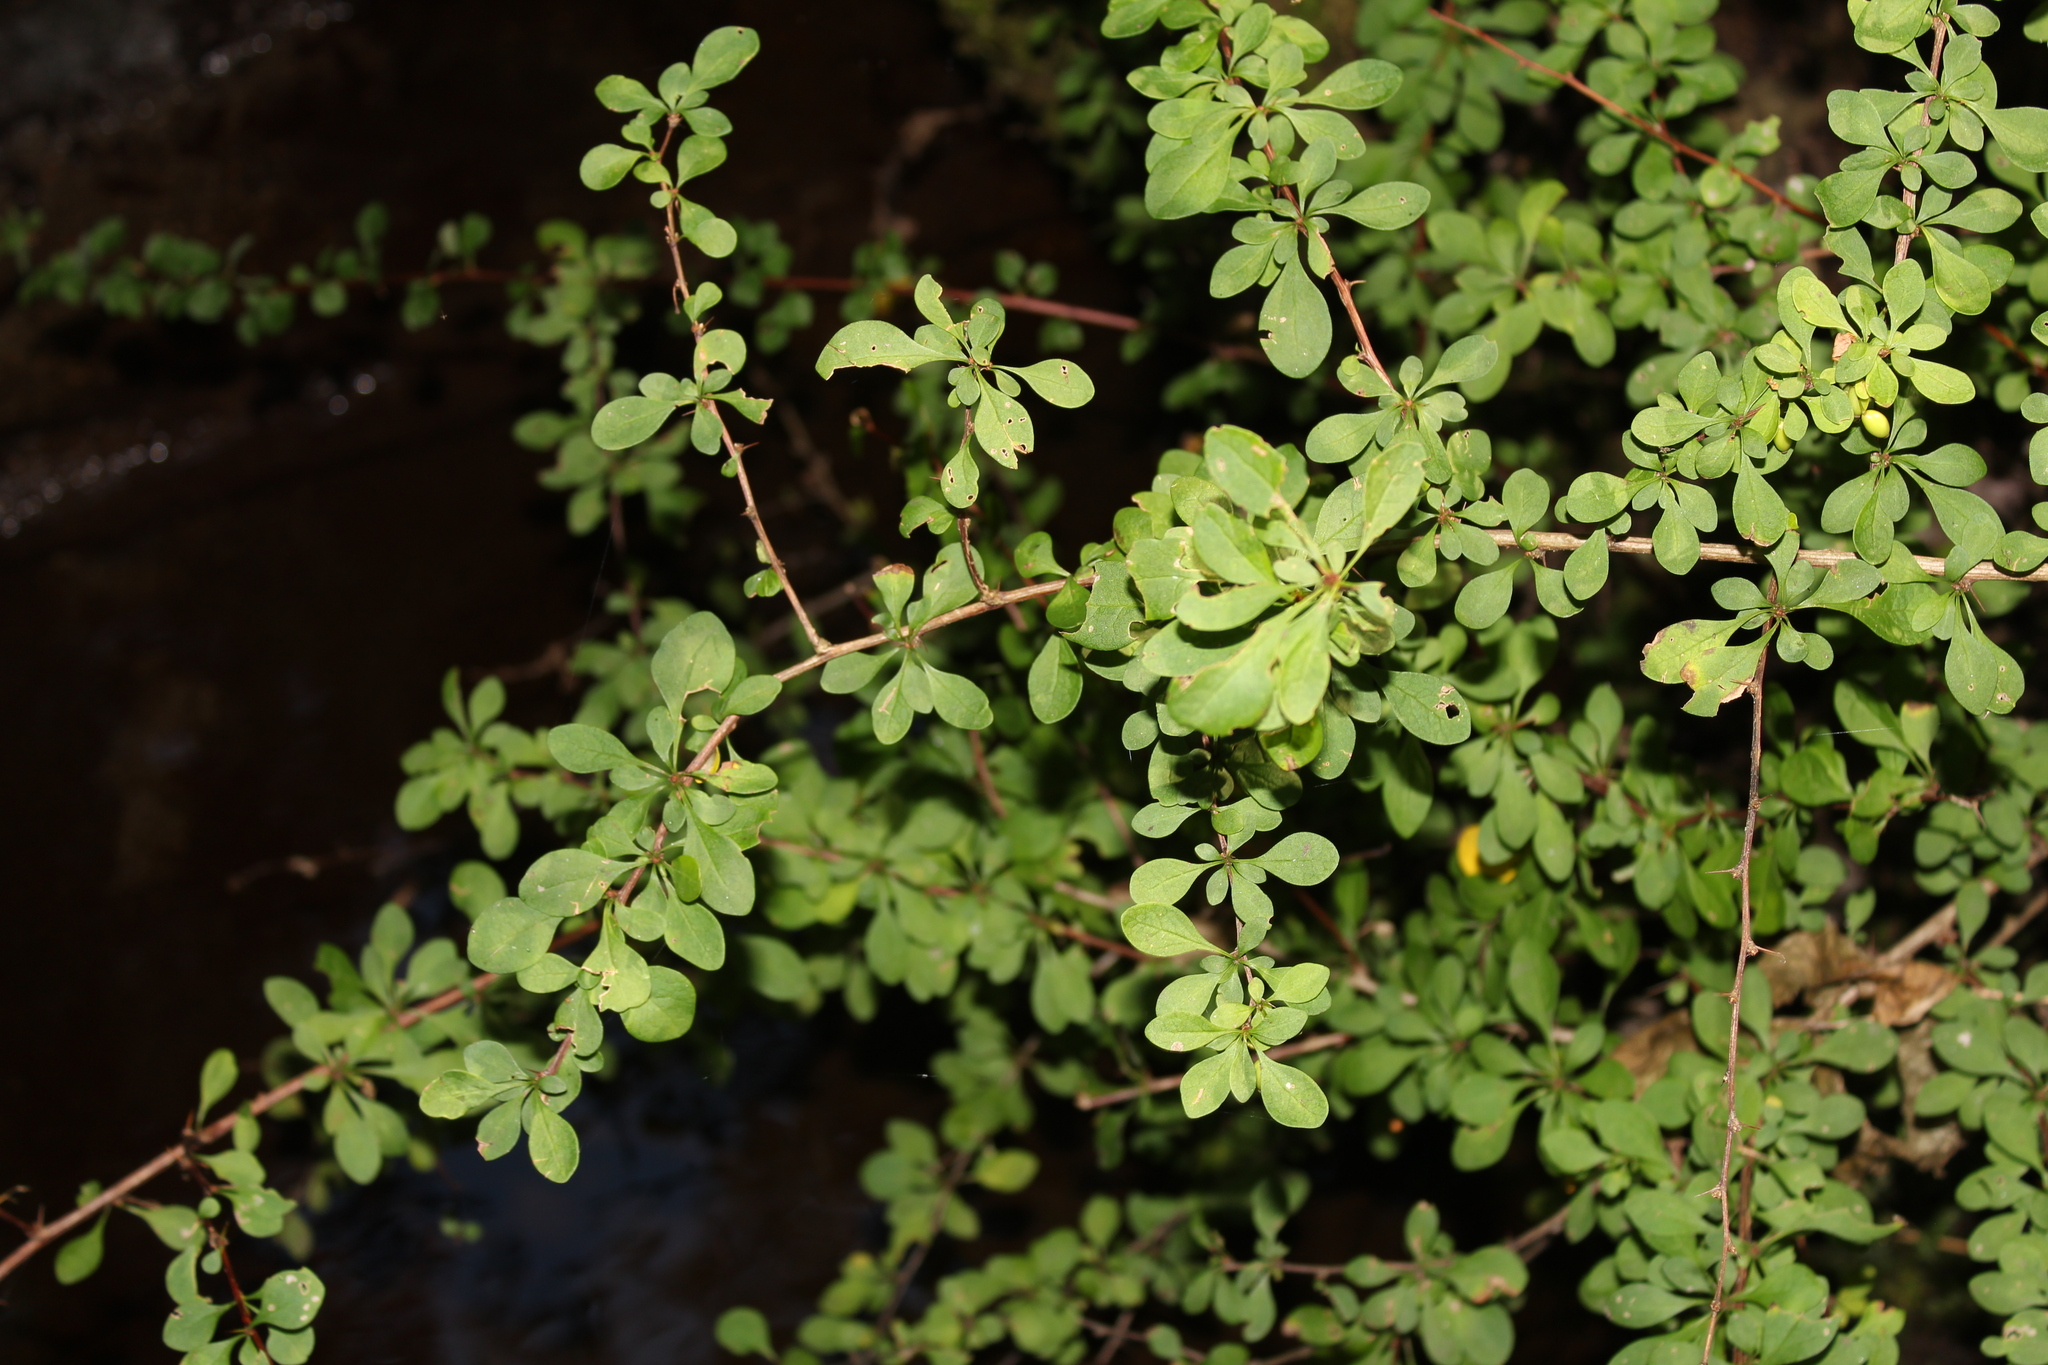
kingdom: Plantae
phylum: Tracheophyta
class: Magnoliopsida
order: Ranunculales
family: Berberidaceae
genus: Berberis
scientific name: Berberis thunbergii
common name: Japanese barberry
